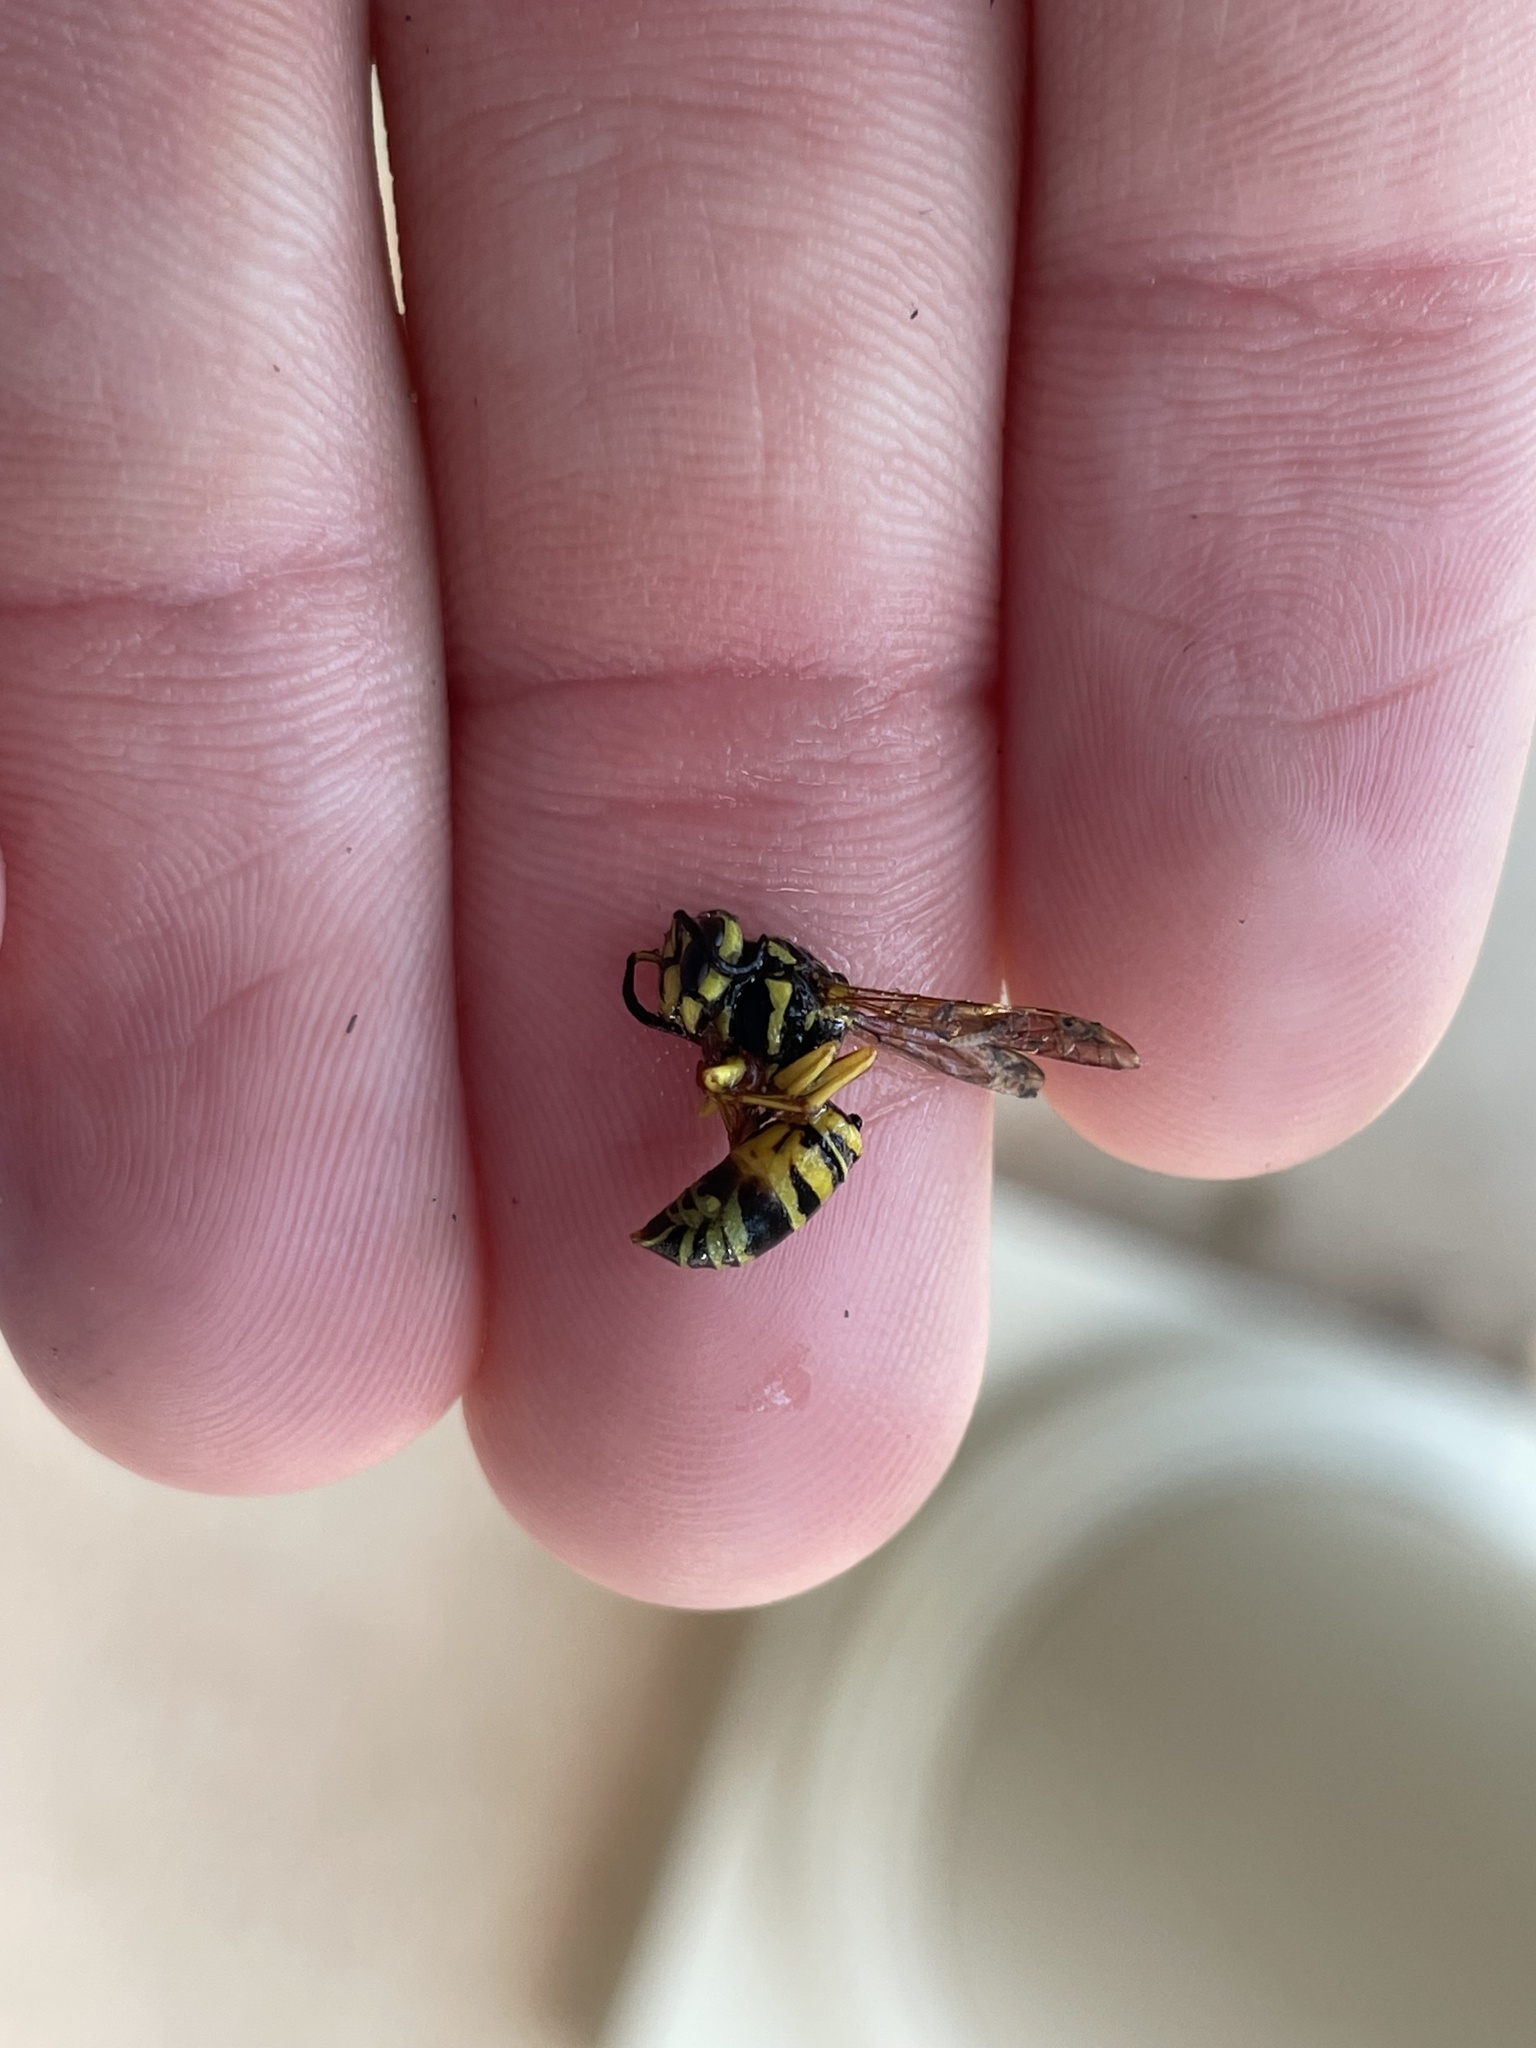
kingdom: Animalia
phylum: Arthropoda
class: Insecta
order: Hymenoptera
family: Vespidae
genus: Vespula
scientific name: Vespula squamosa
